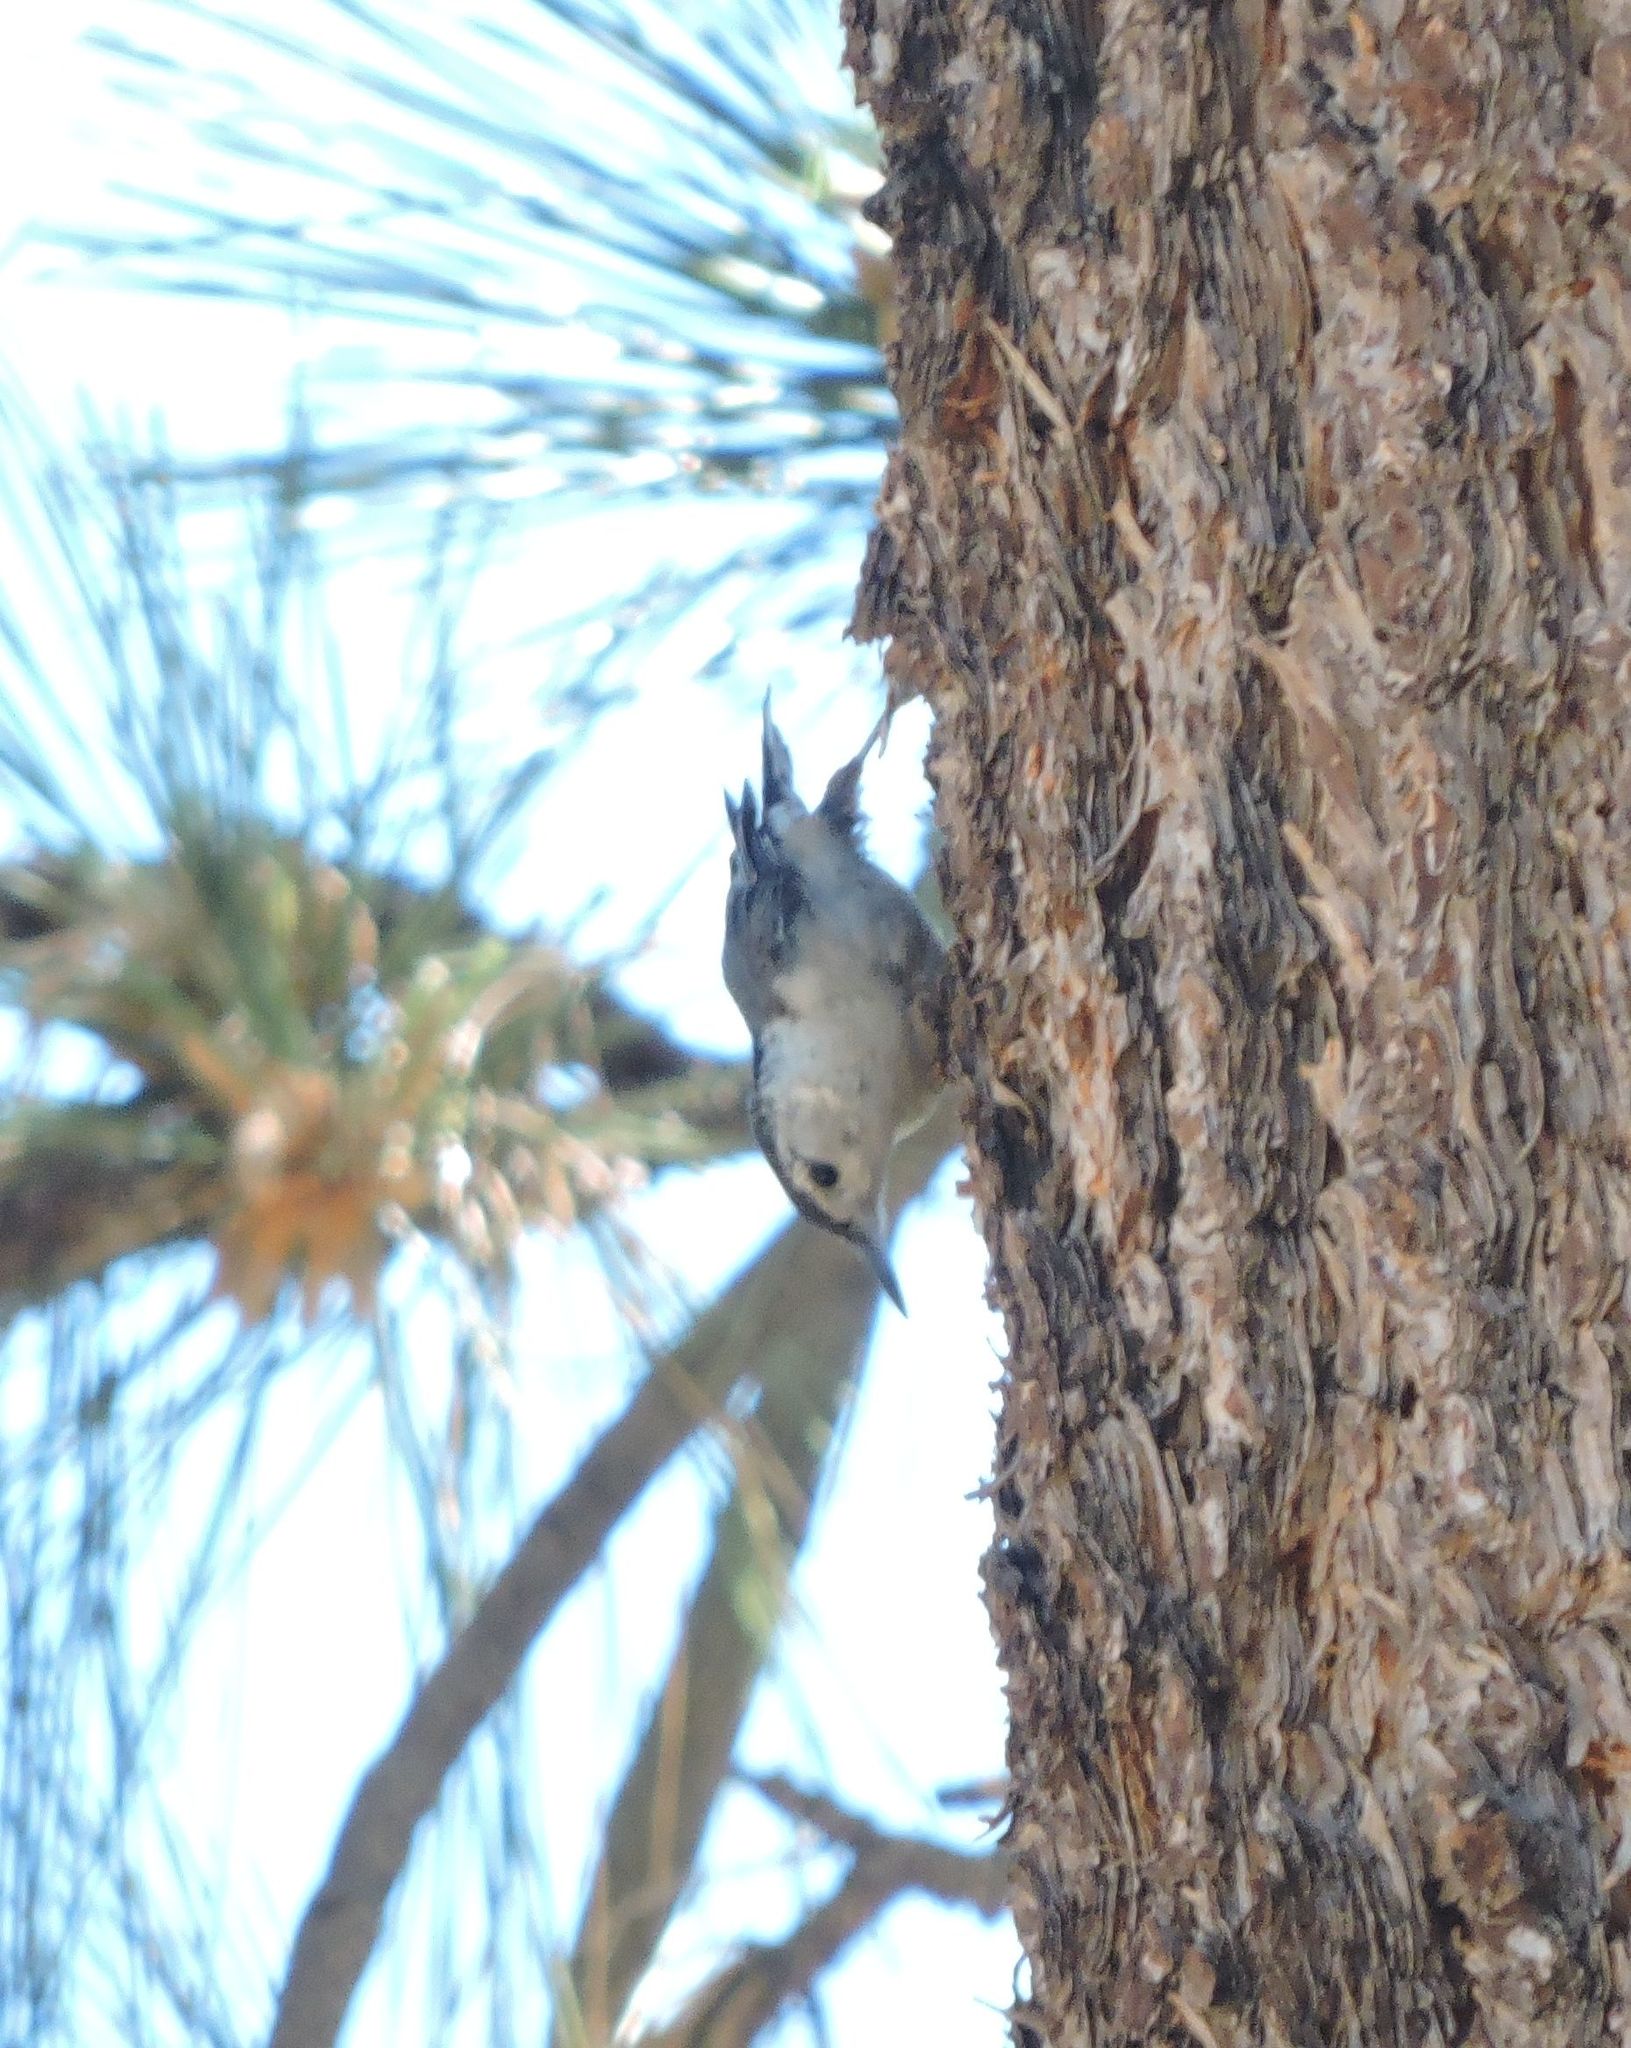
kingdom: Animalia
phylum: Chordata
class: Aves
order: Passeriformes
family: Sittidae
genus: Sitta
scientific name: Sitta carolinensis
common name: White-breasted nuthatch
